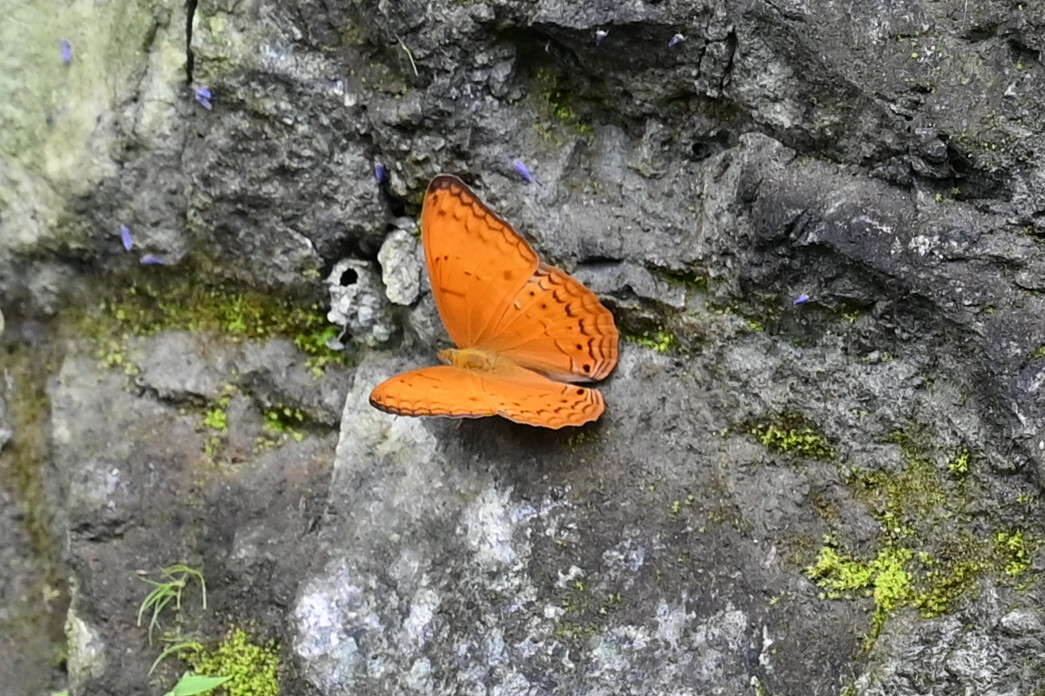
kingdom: Animalia
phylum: Arthropoda
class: Insecta
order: Lepidoptera
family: Nymphalidae
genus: Cirrochroa
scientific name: Cirrochroa tyche
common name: Common yeoman
